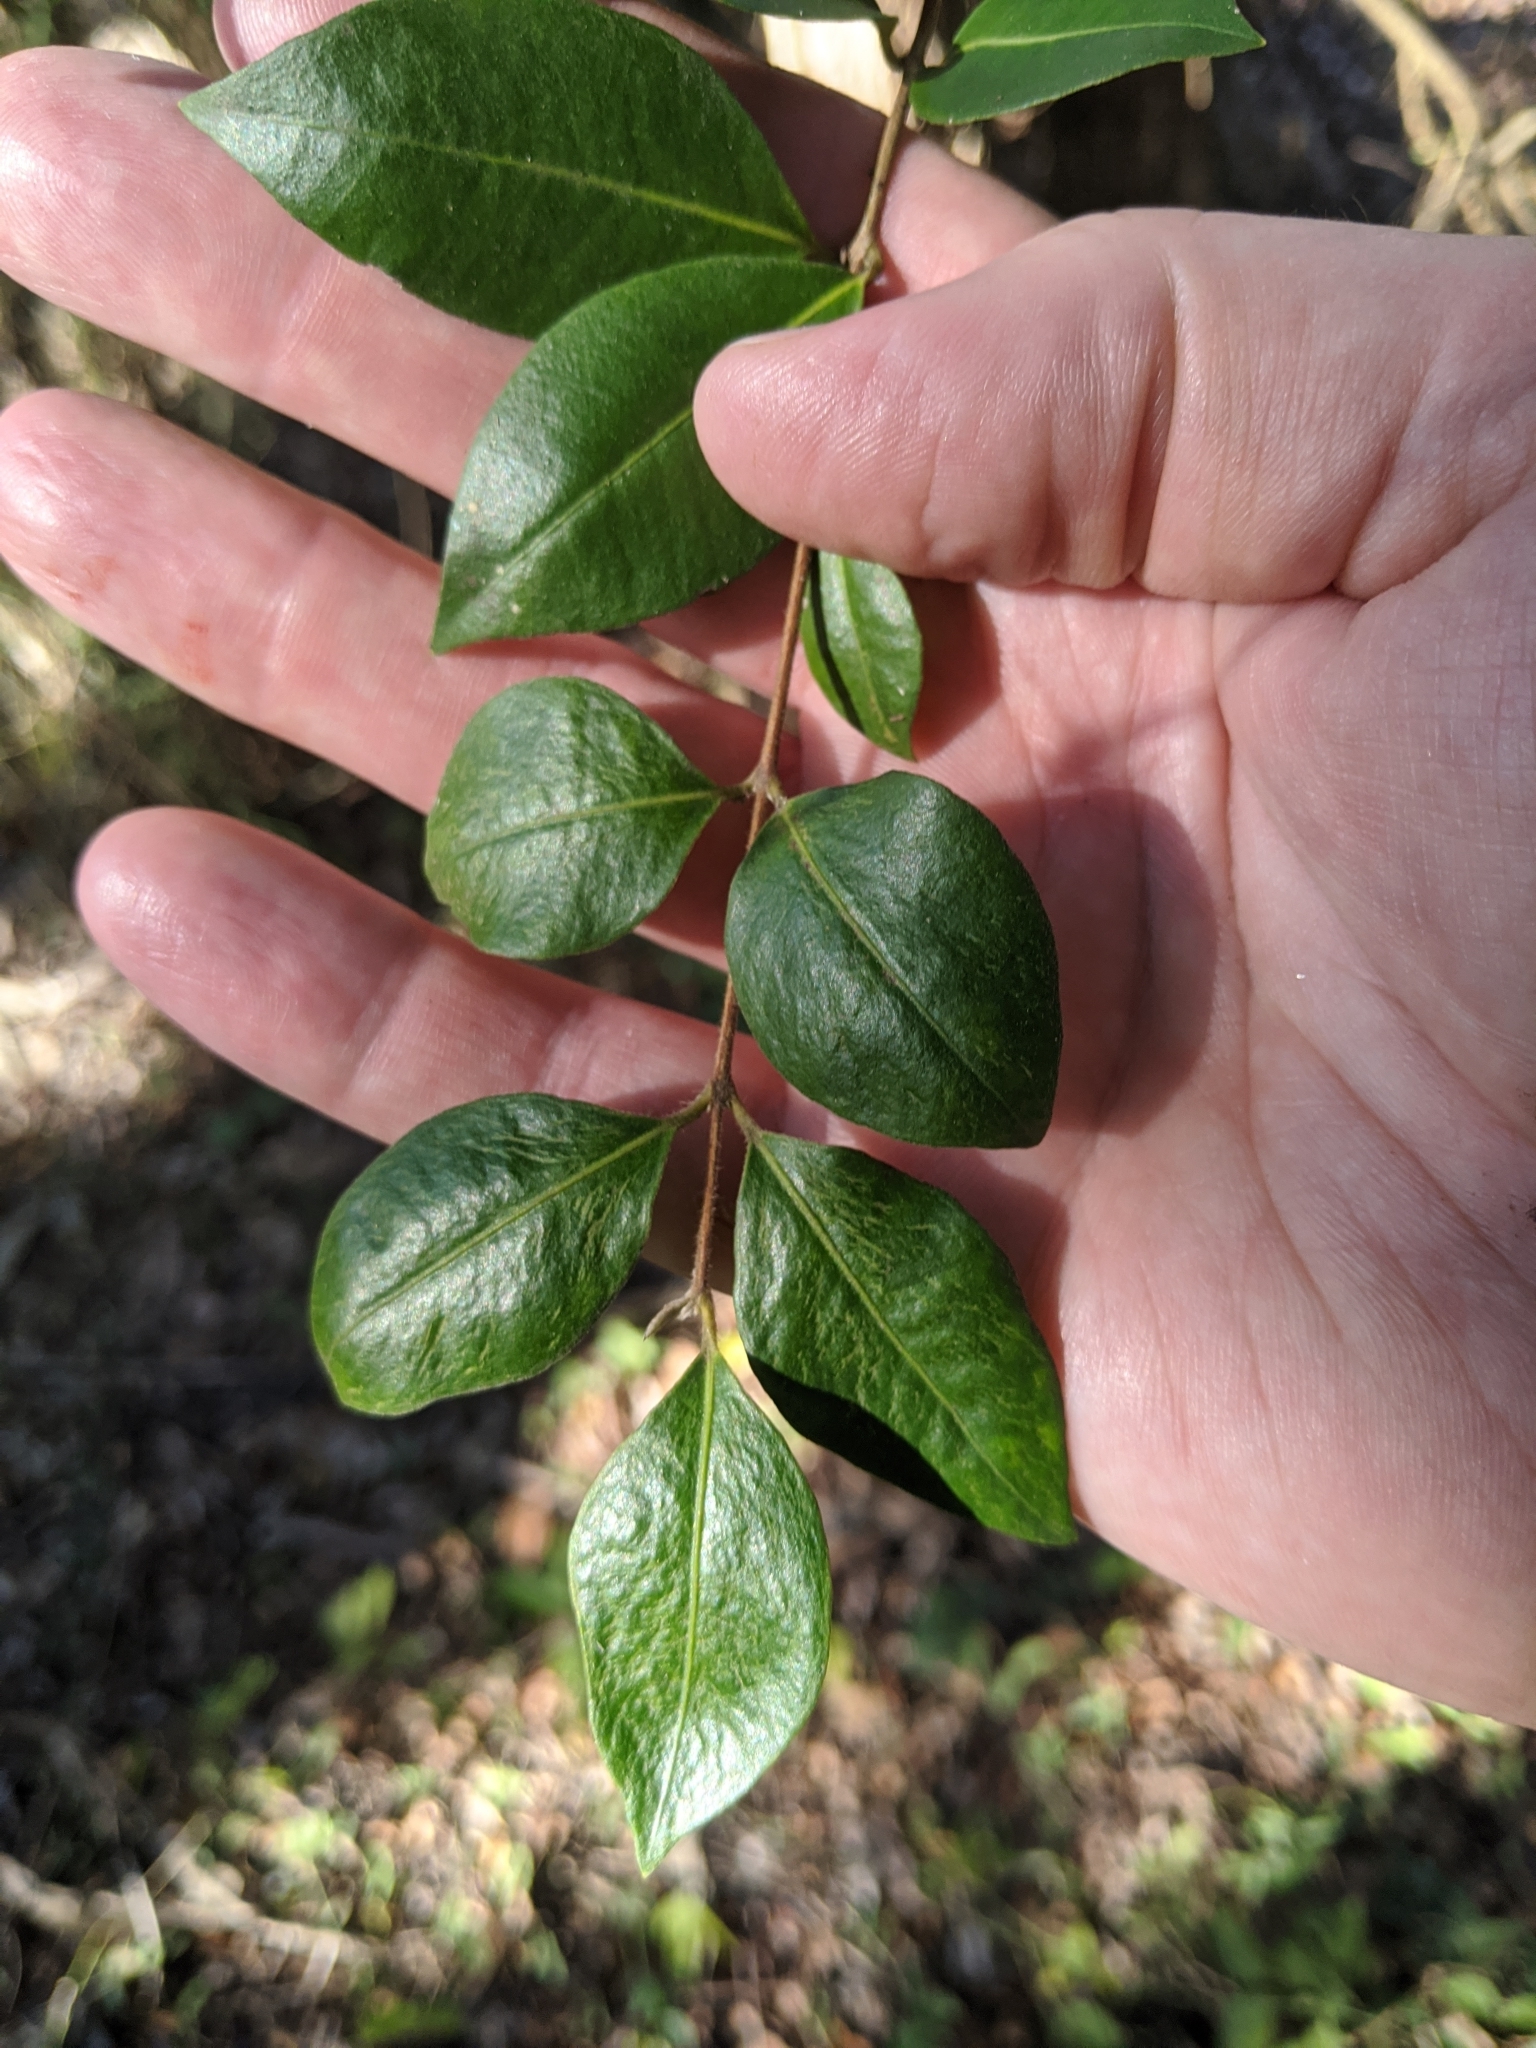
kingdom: Plantae
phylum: Tracheophyta
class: Magnoliopsida
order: Myrtales
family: Myrtaceae
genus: Backhousia
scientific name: Backhousia myrtifolia
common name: Carrol
